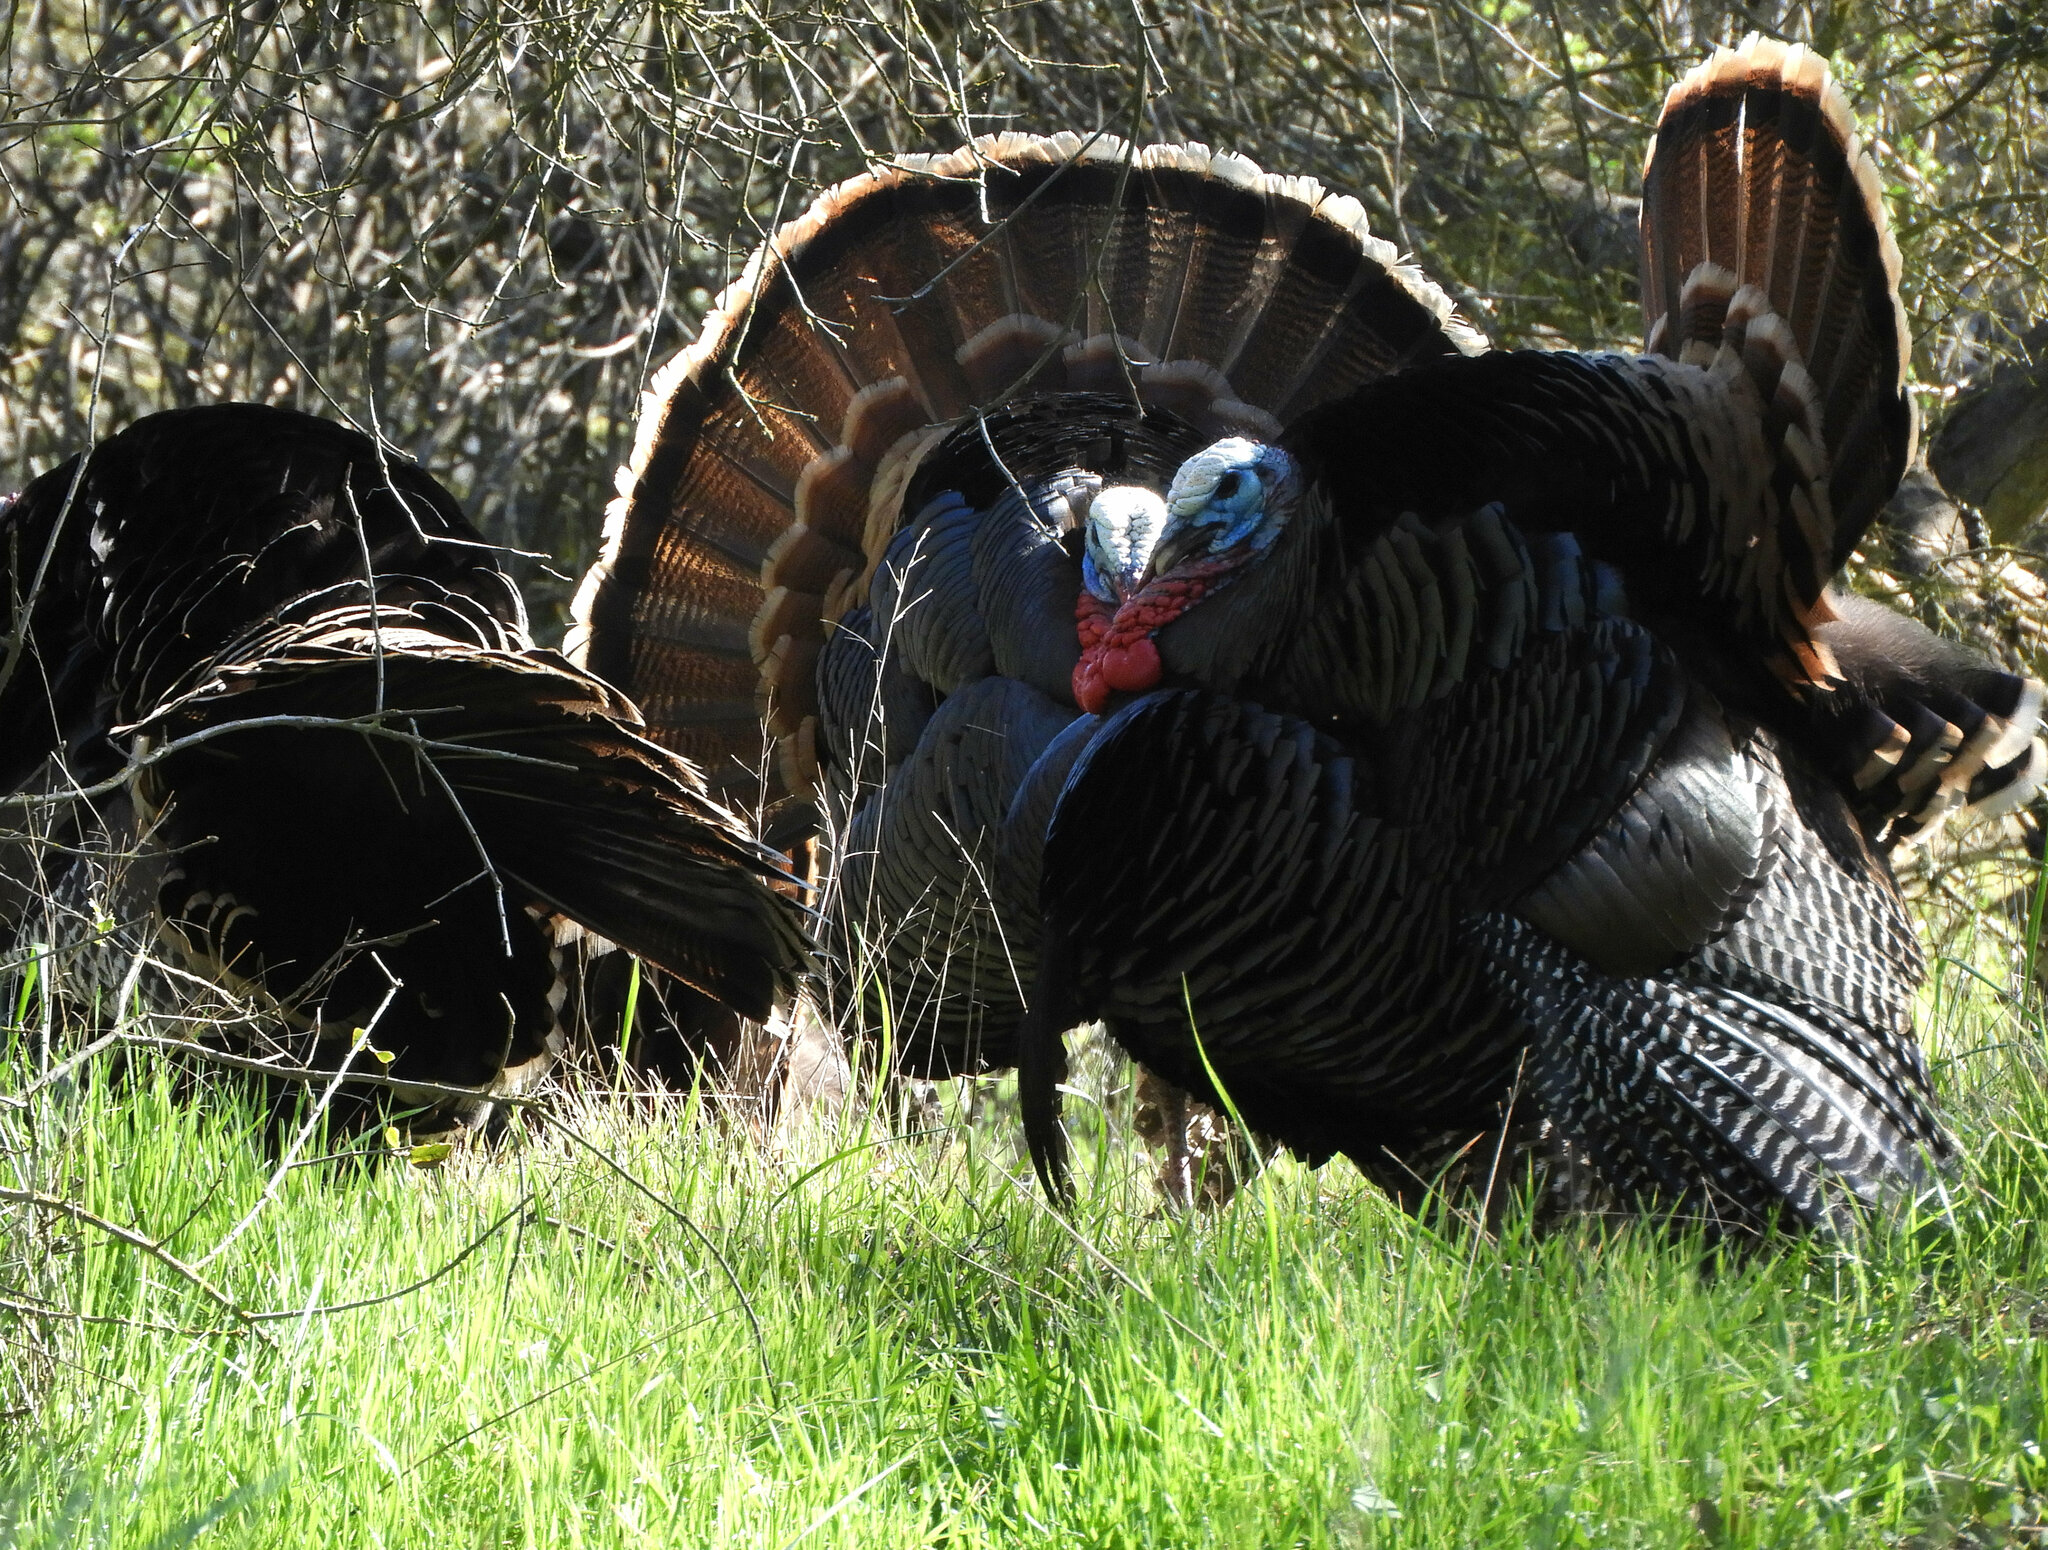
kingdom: Animalia
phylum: Chordata
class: Aves
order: Galliformes
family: Phasianidae
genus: Meleagris
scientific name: Meleagris gallopavo
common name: Wild turkey
